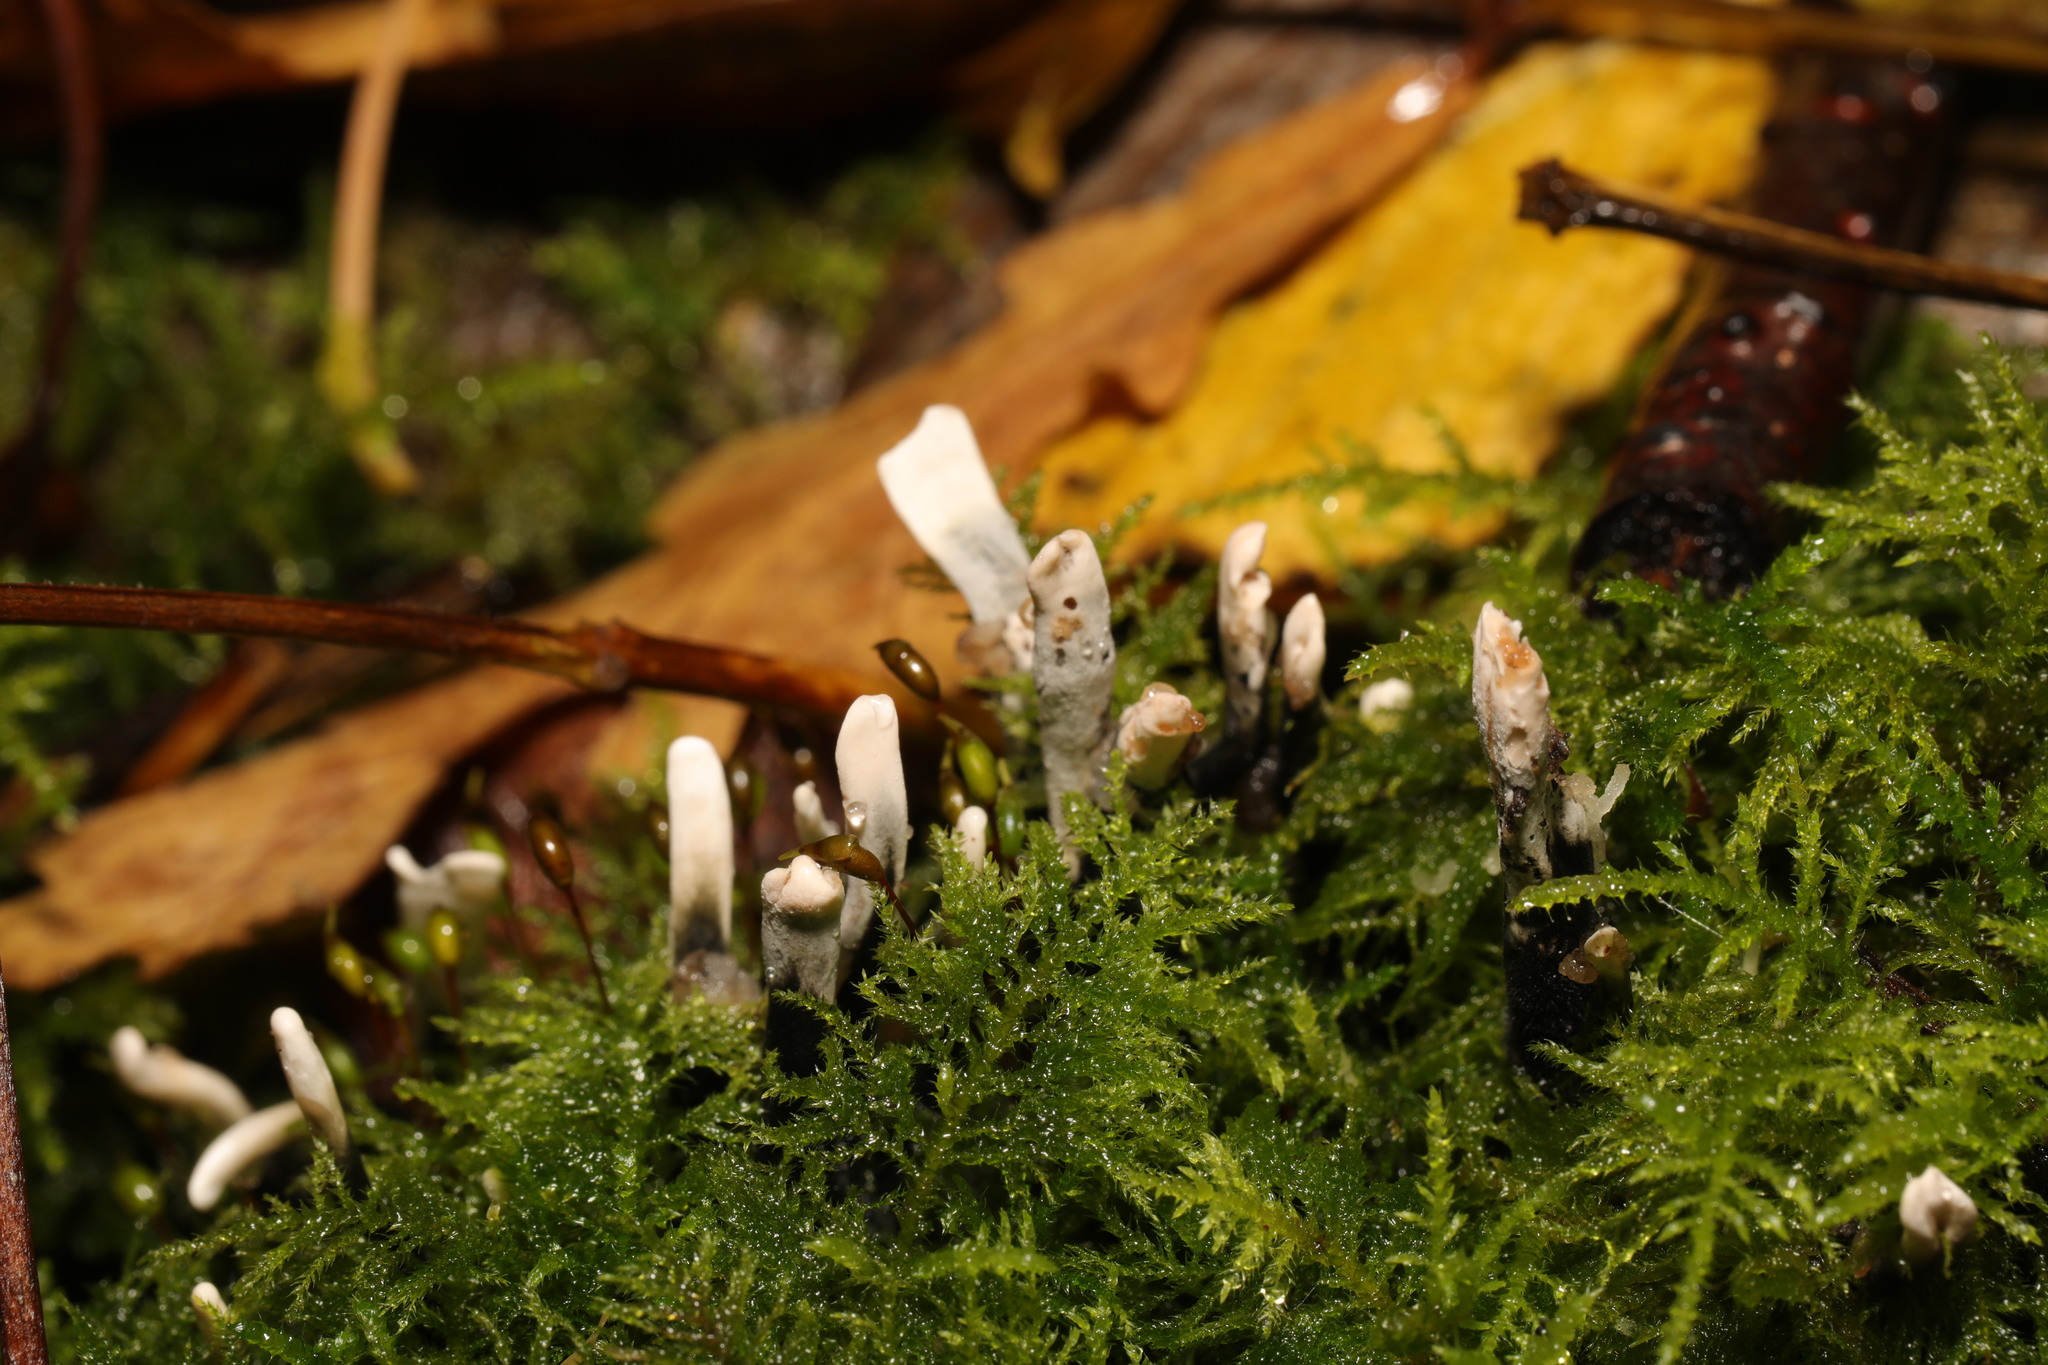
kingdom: Fungi
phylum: Ascomycota
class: Sordariomycetes
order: Xylariales
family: Xylariaceae
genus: Xylaria
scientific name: Xylaria hypoxylon
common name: Candle-snuff fungus
